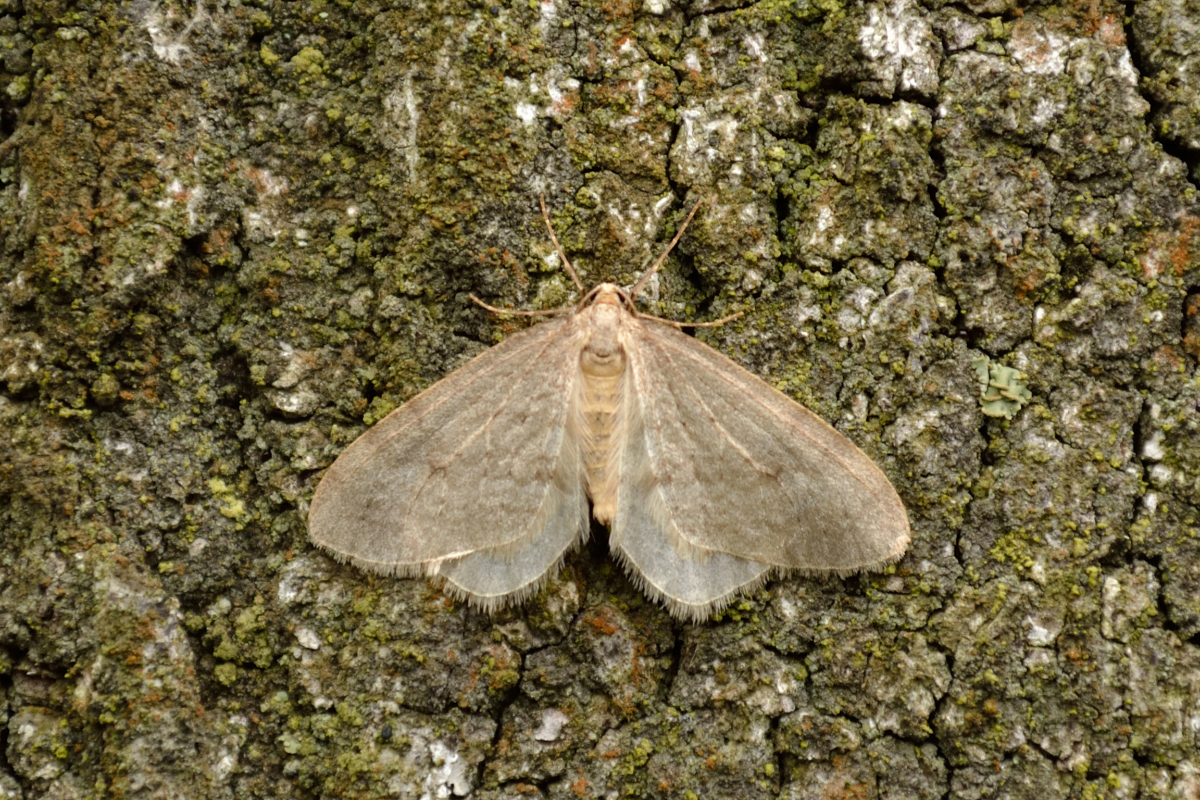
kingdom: Animalia
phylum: Arthropoda
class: Insecta
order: Lepidoptera
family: Geometridae
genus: Operophtera
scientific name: Operophtera brumata
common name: Winter moth
